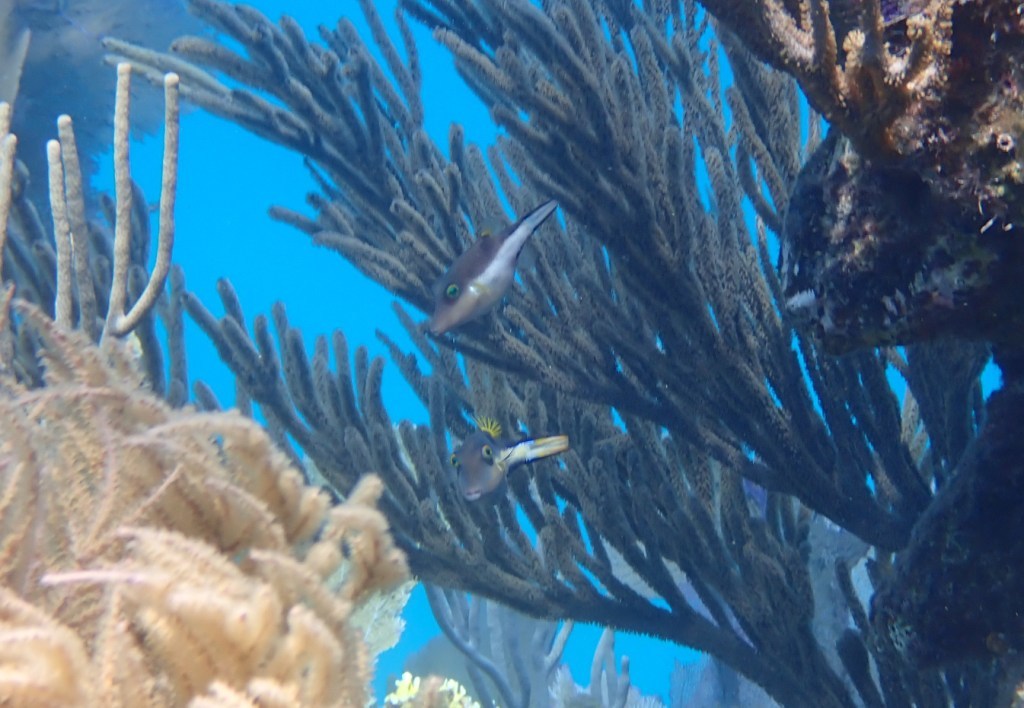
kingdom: Animalia
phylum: Chordata
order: Tetraodontiformes
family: Tetraodontidae
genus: Canthigaster
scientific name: Canthigaster rostrata
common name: Caribbean sharpnose-puffer
